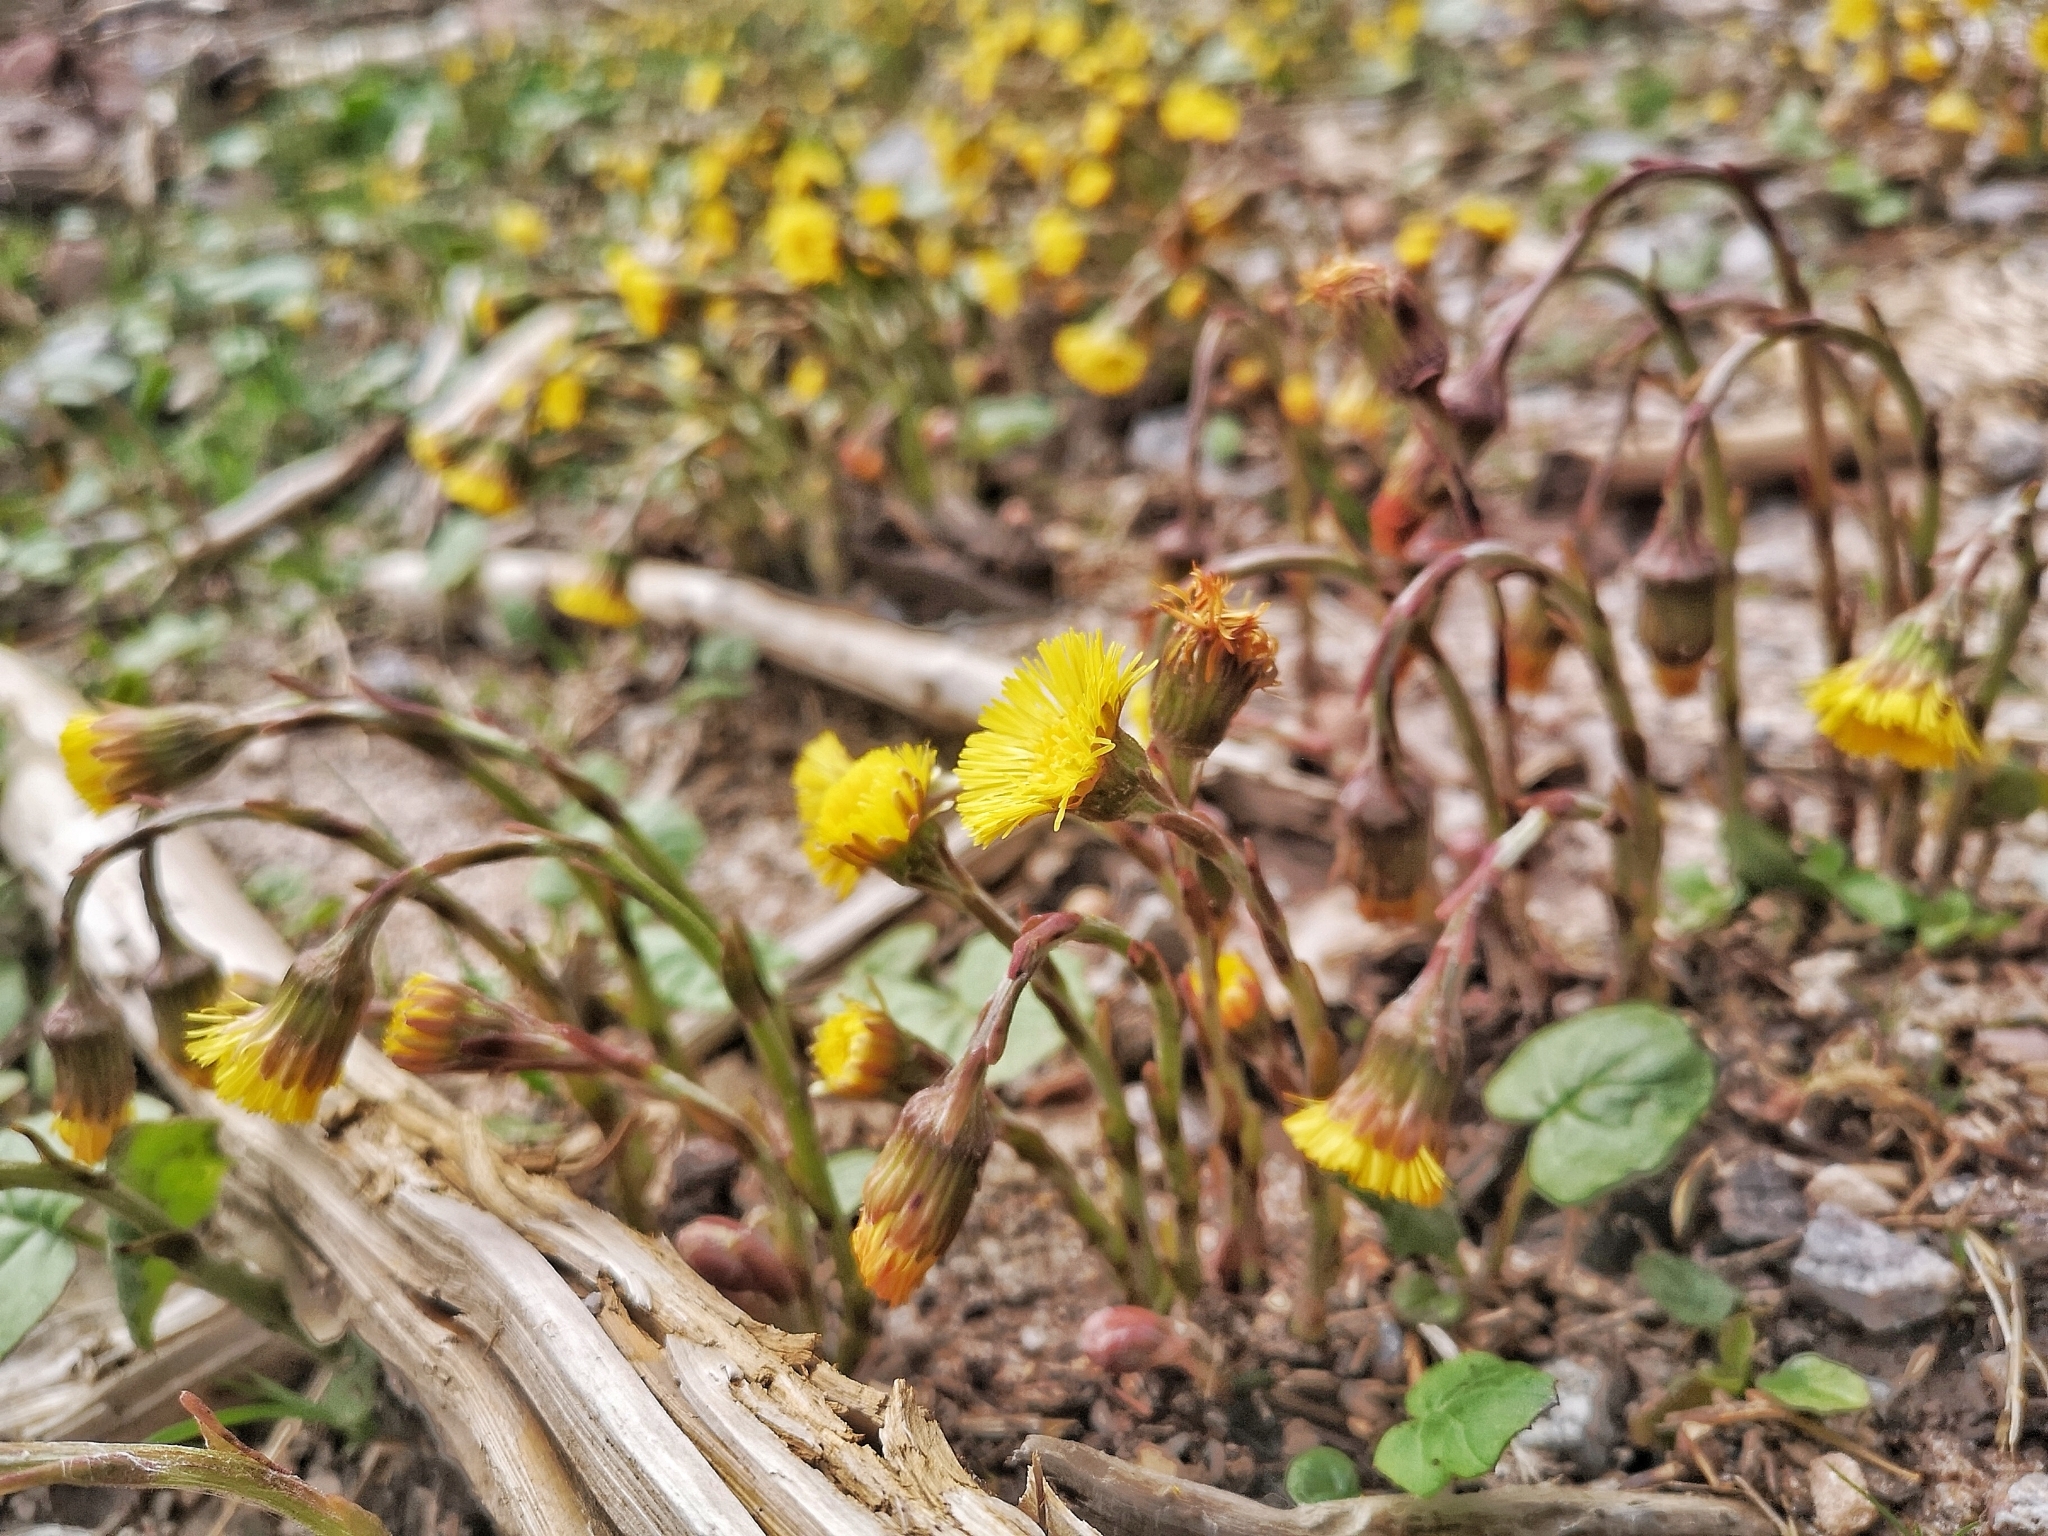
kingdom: Plantae
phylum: Tracheophyta
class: Magnoliopsida
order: Asterales
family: Asteraceae
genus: Tussilago
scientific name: Tussilago farfara
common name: Coltsfoot
